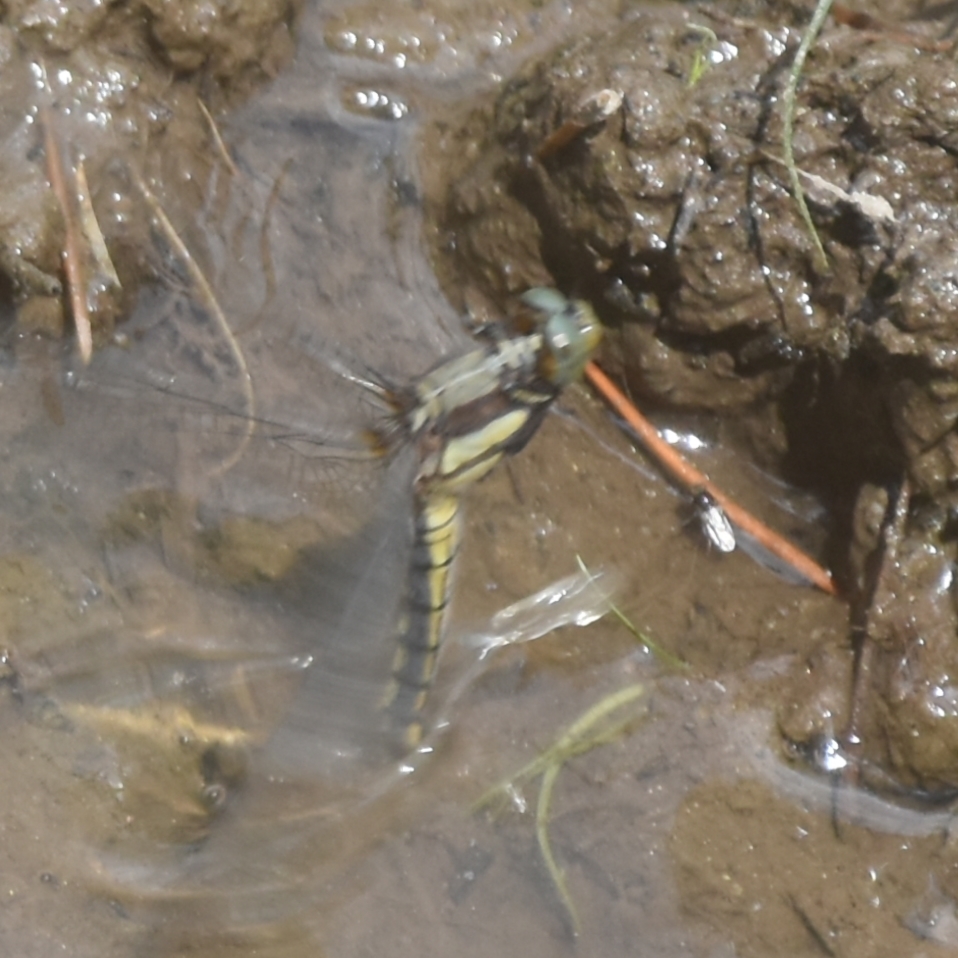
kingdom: Animalia
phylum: Arthropoda
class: Insecta
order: Odonata
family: Libellulidae
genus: Orthetrum
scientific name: Orthetrum internum
